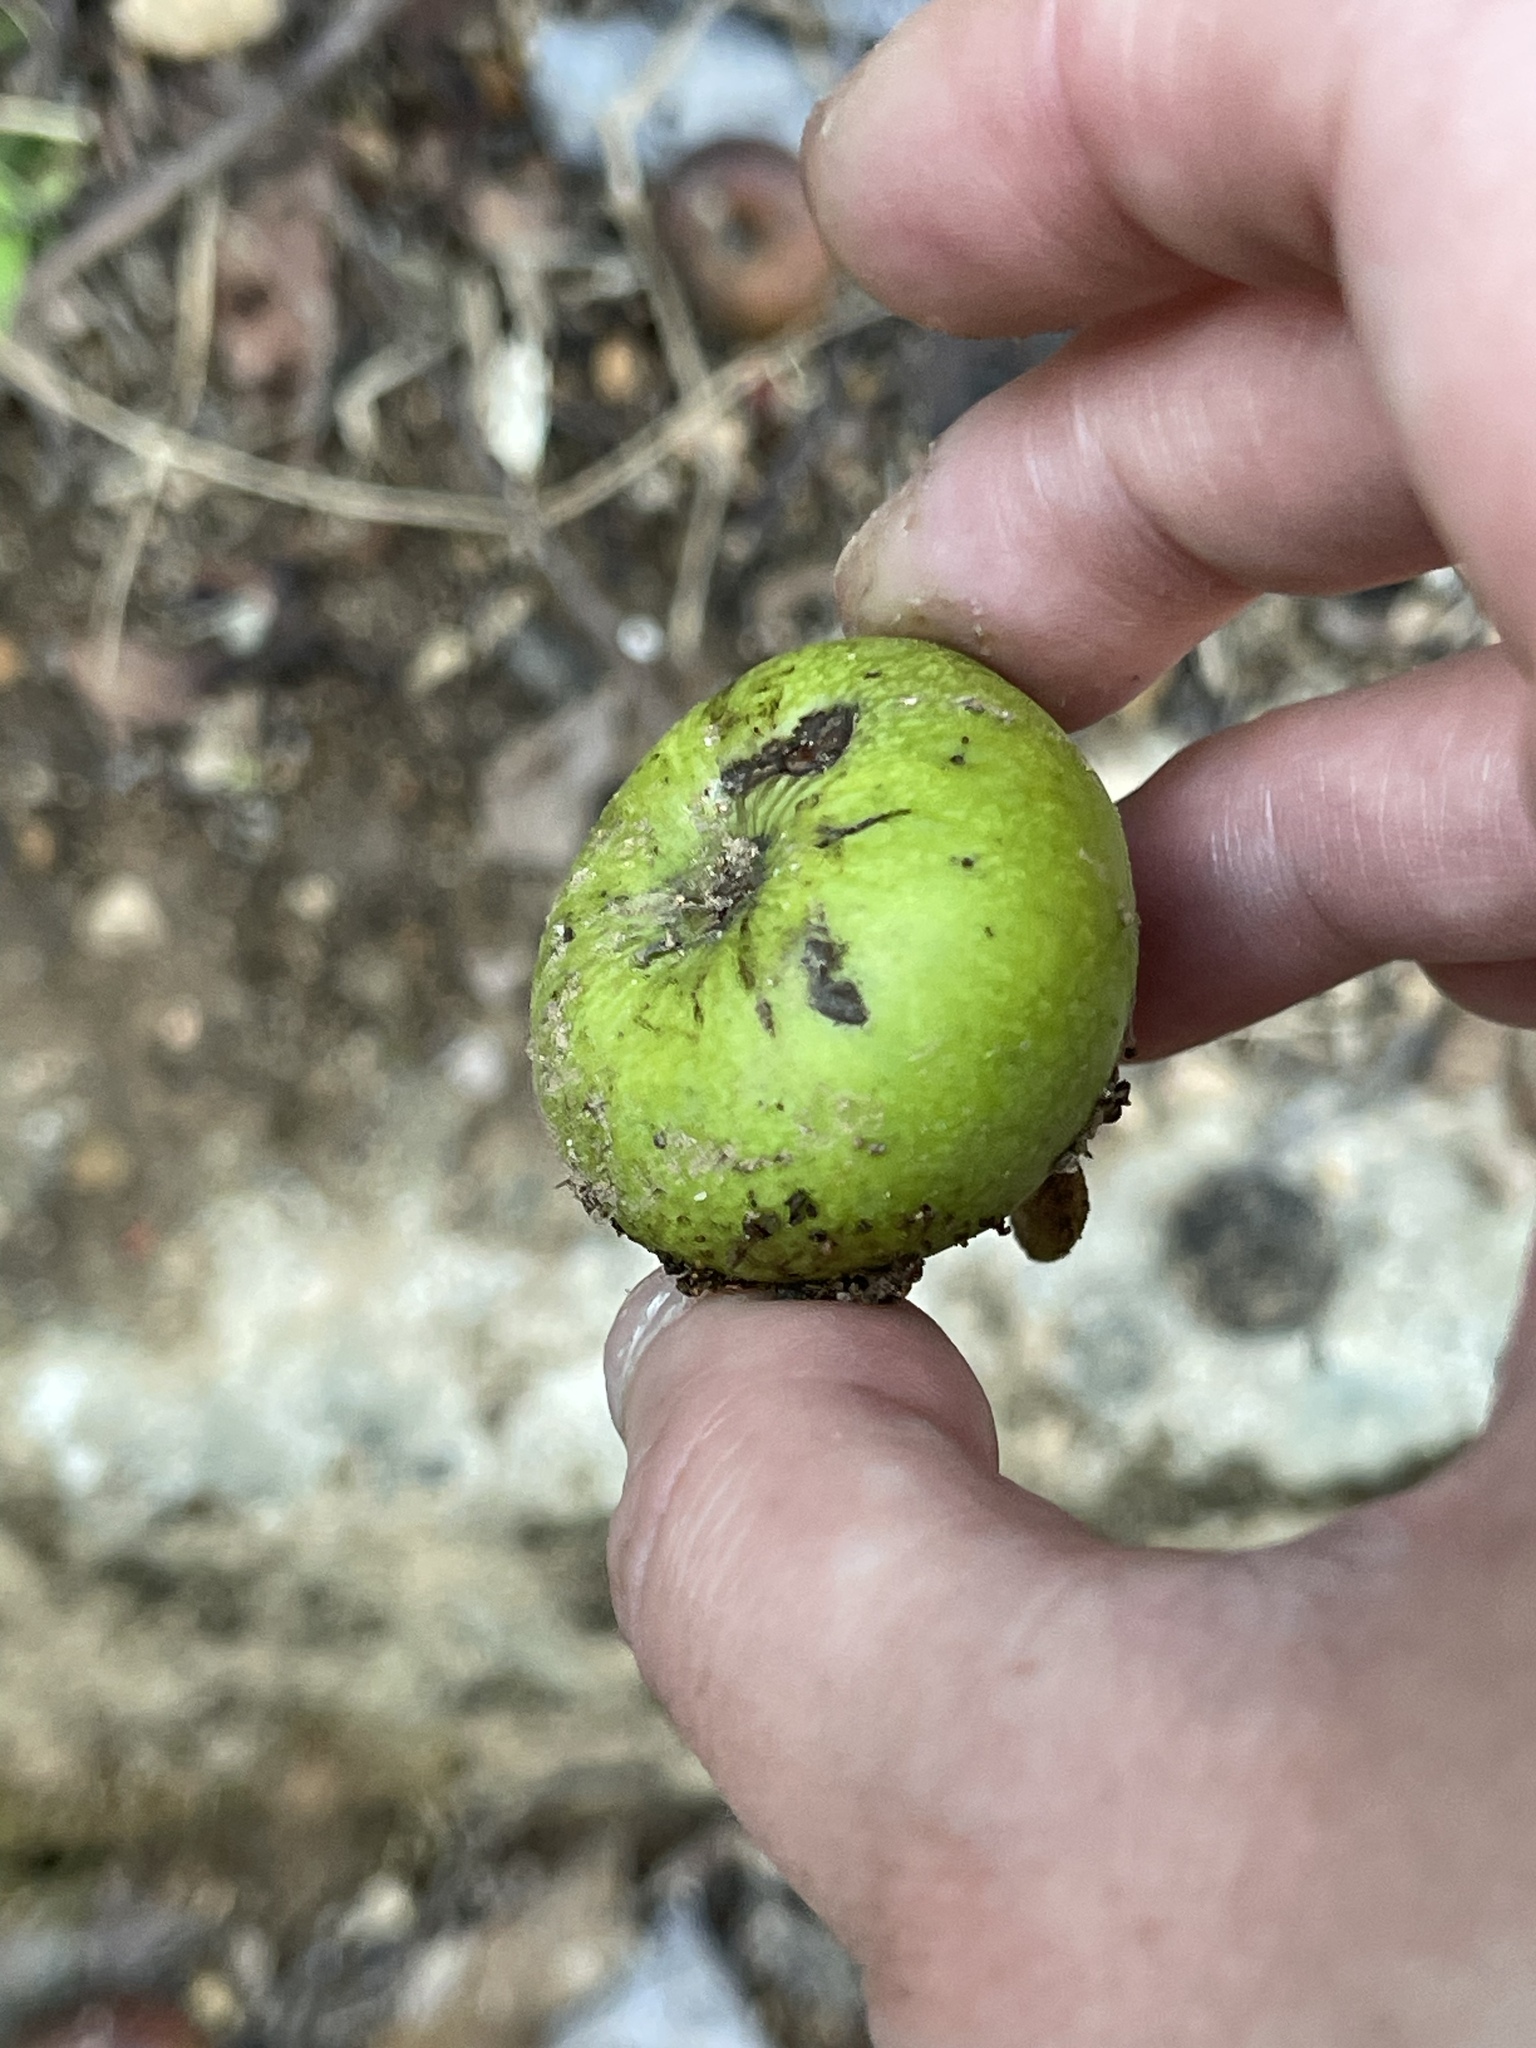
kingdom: Plantae
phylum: Tracheophyta
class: Magnoliopsida
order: Rosales
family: Moraceae
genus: Ficus
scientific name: Ficus variegata
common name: Variegated fig
